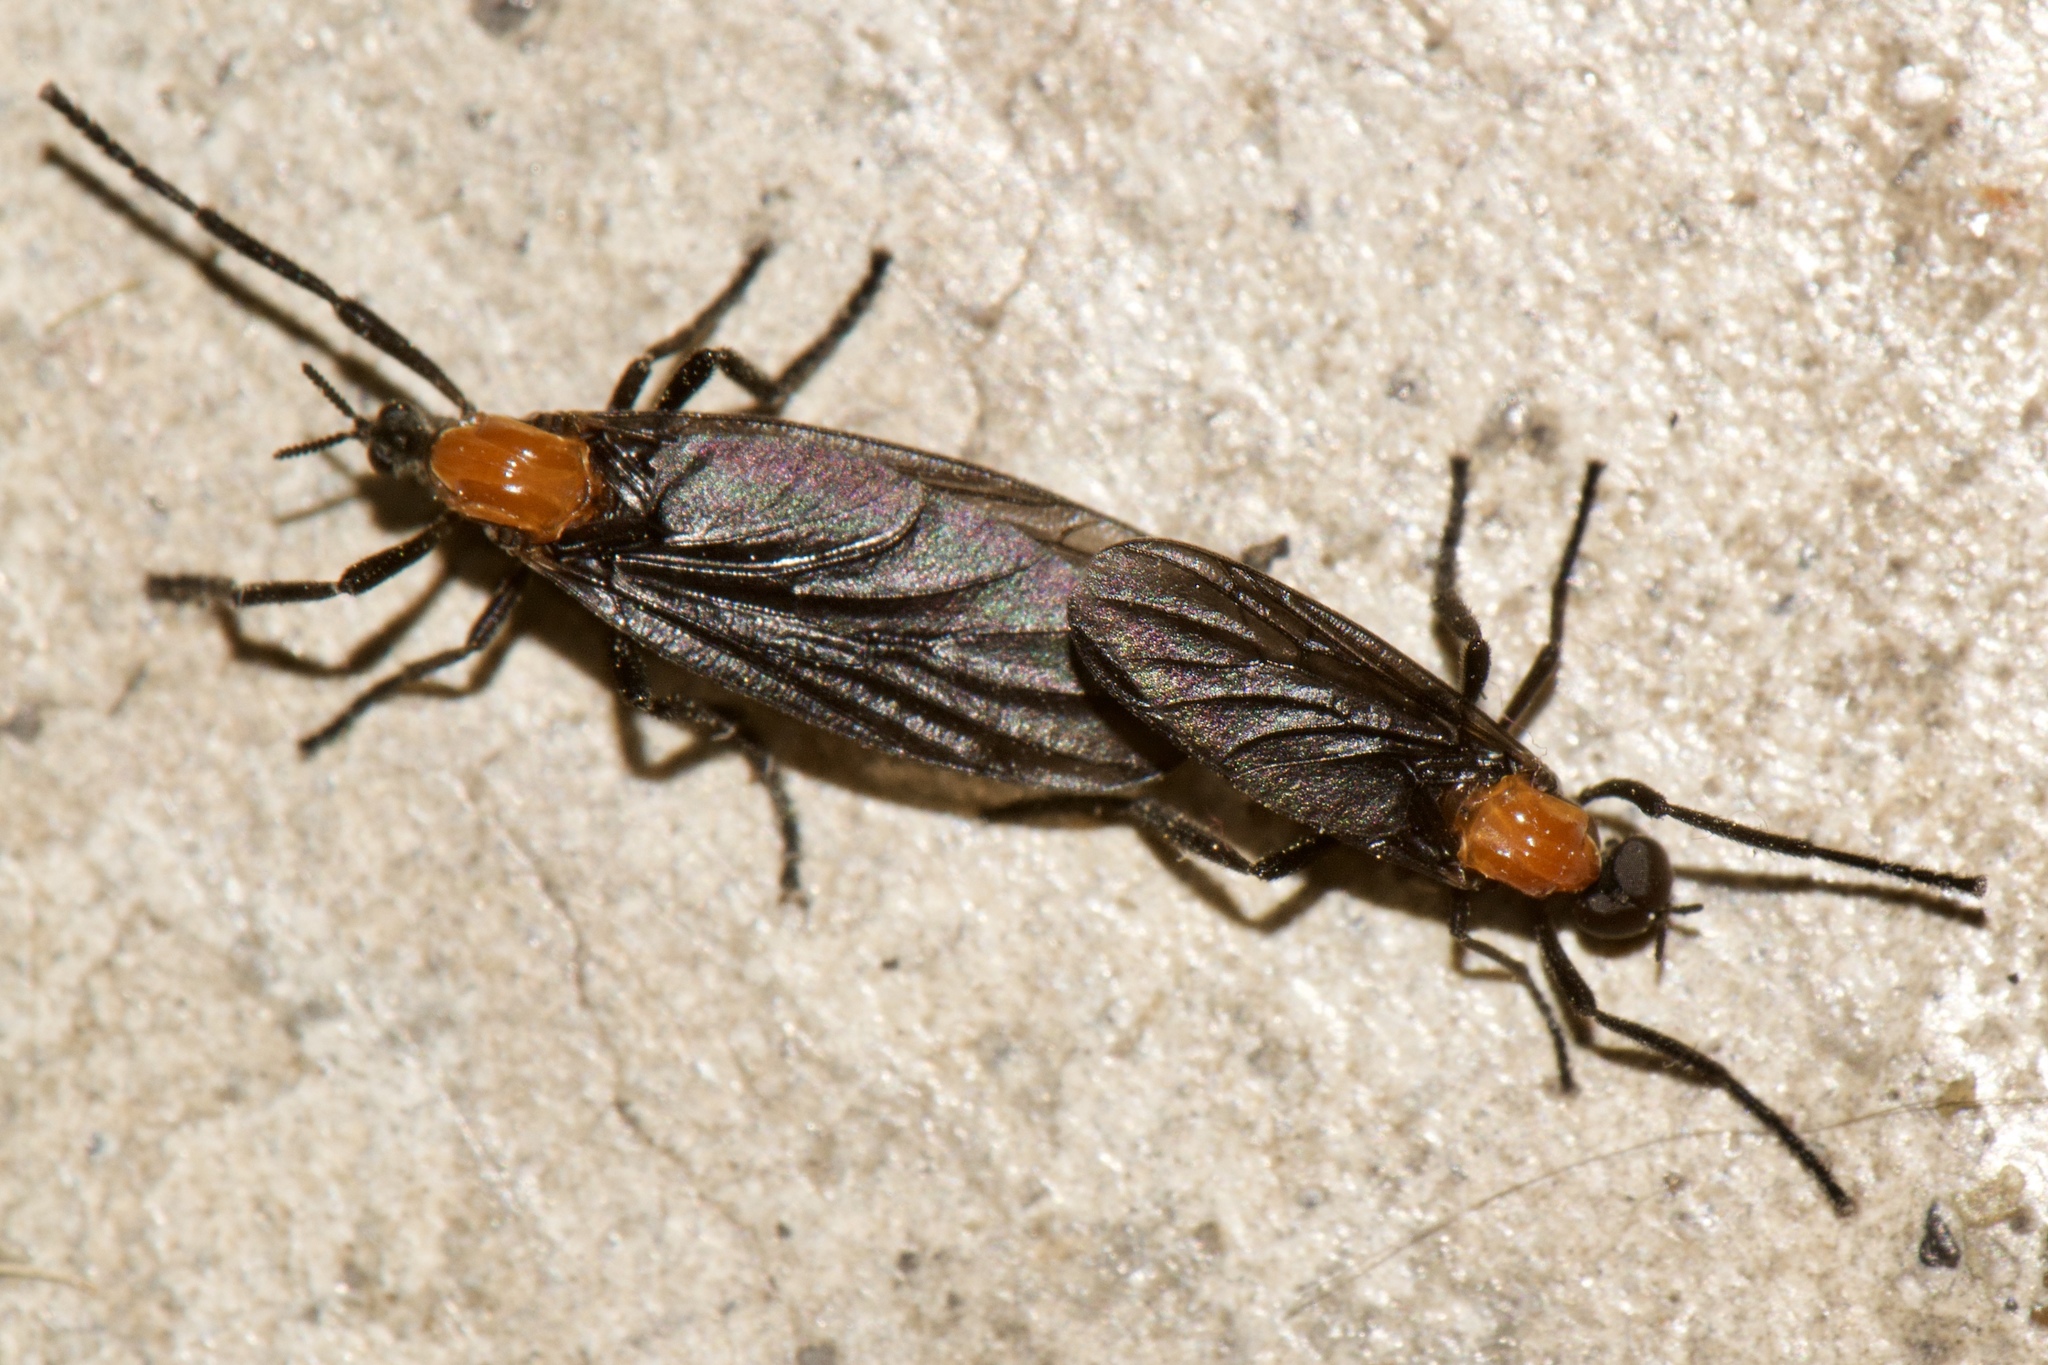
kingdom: Animalia
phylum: Arthropoda
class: Insecta
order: Diptera
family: Bibionidae
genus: Plecia
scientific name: Plecia nearctica
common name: March fly
